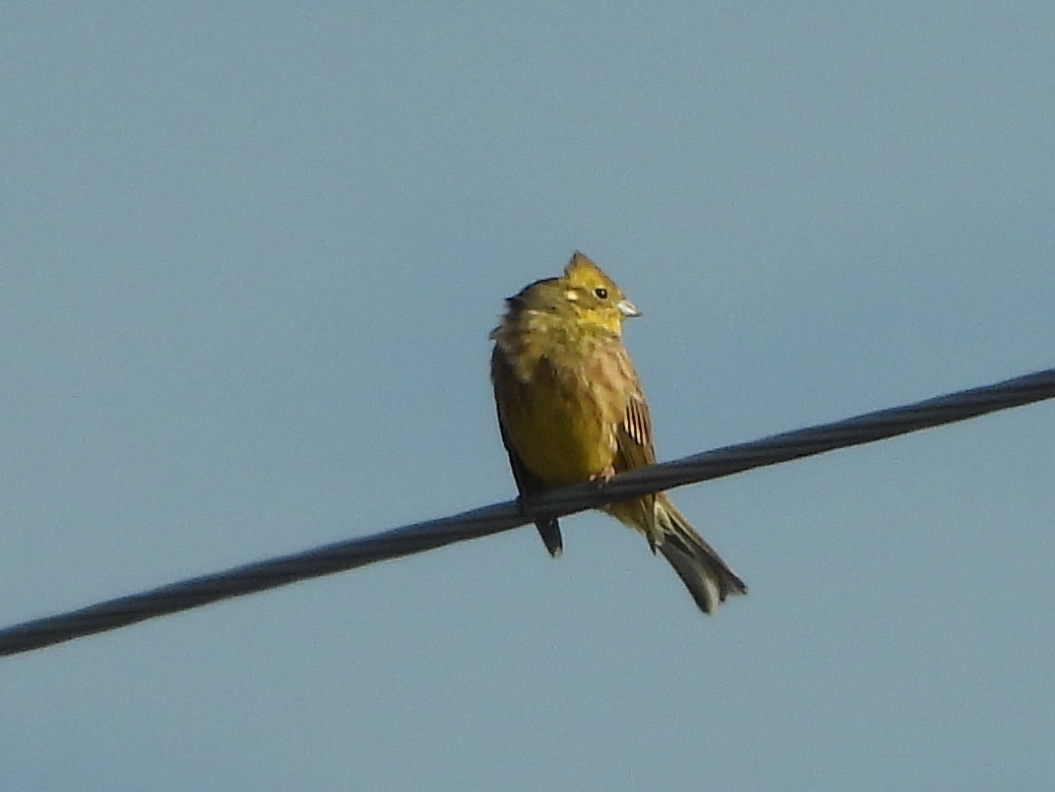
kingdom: Animalia
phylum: Chordata
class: Aves
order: Passeriformes
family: Emberizidae
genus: Emberiza
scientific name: Emberiza citrinella
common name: Yellowhammer
